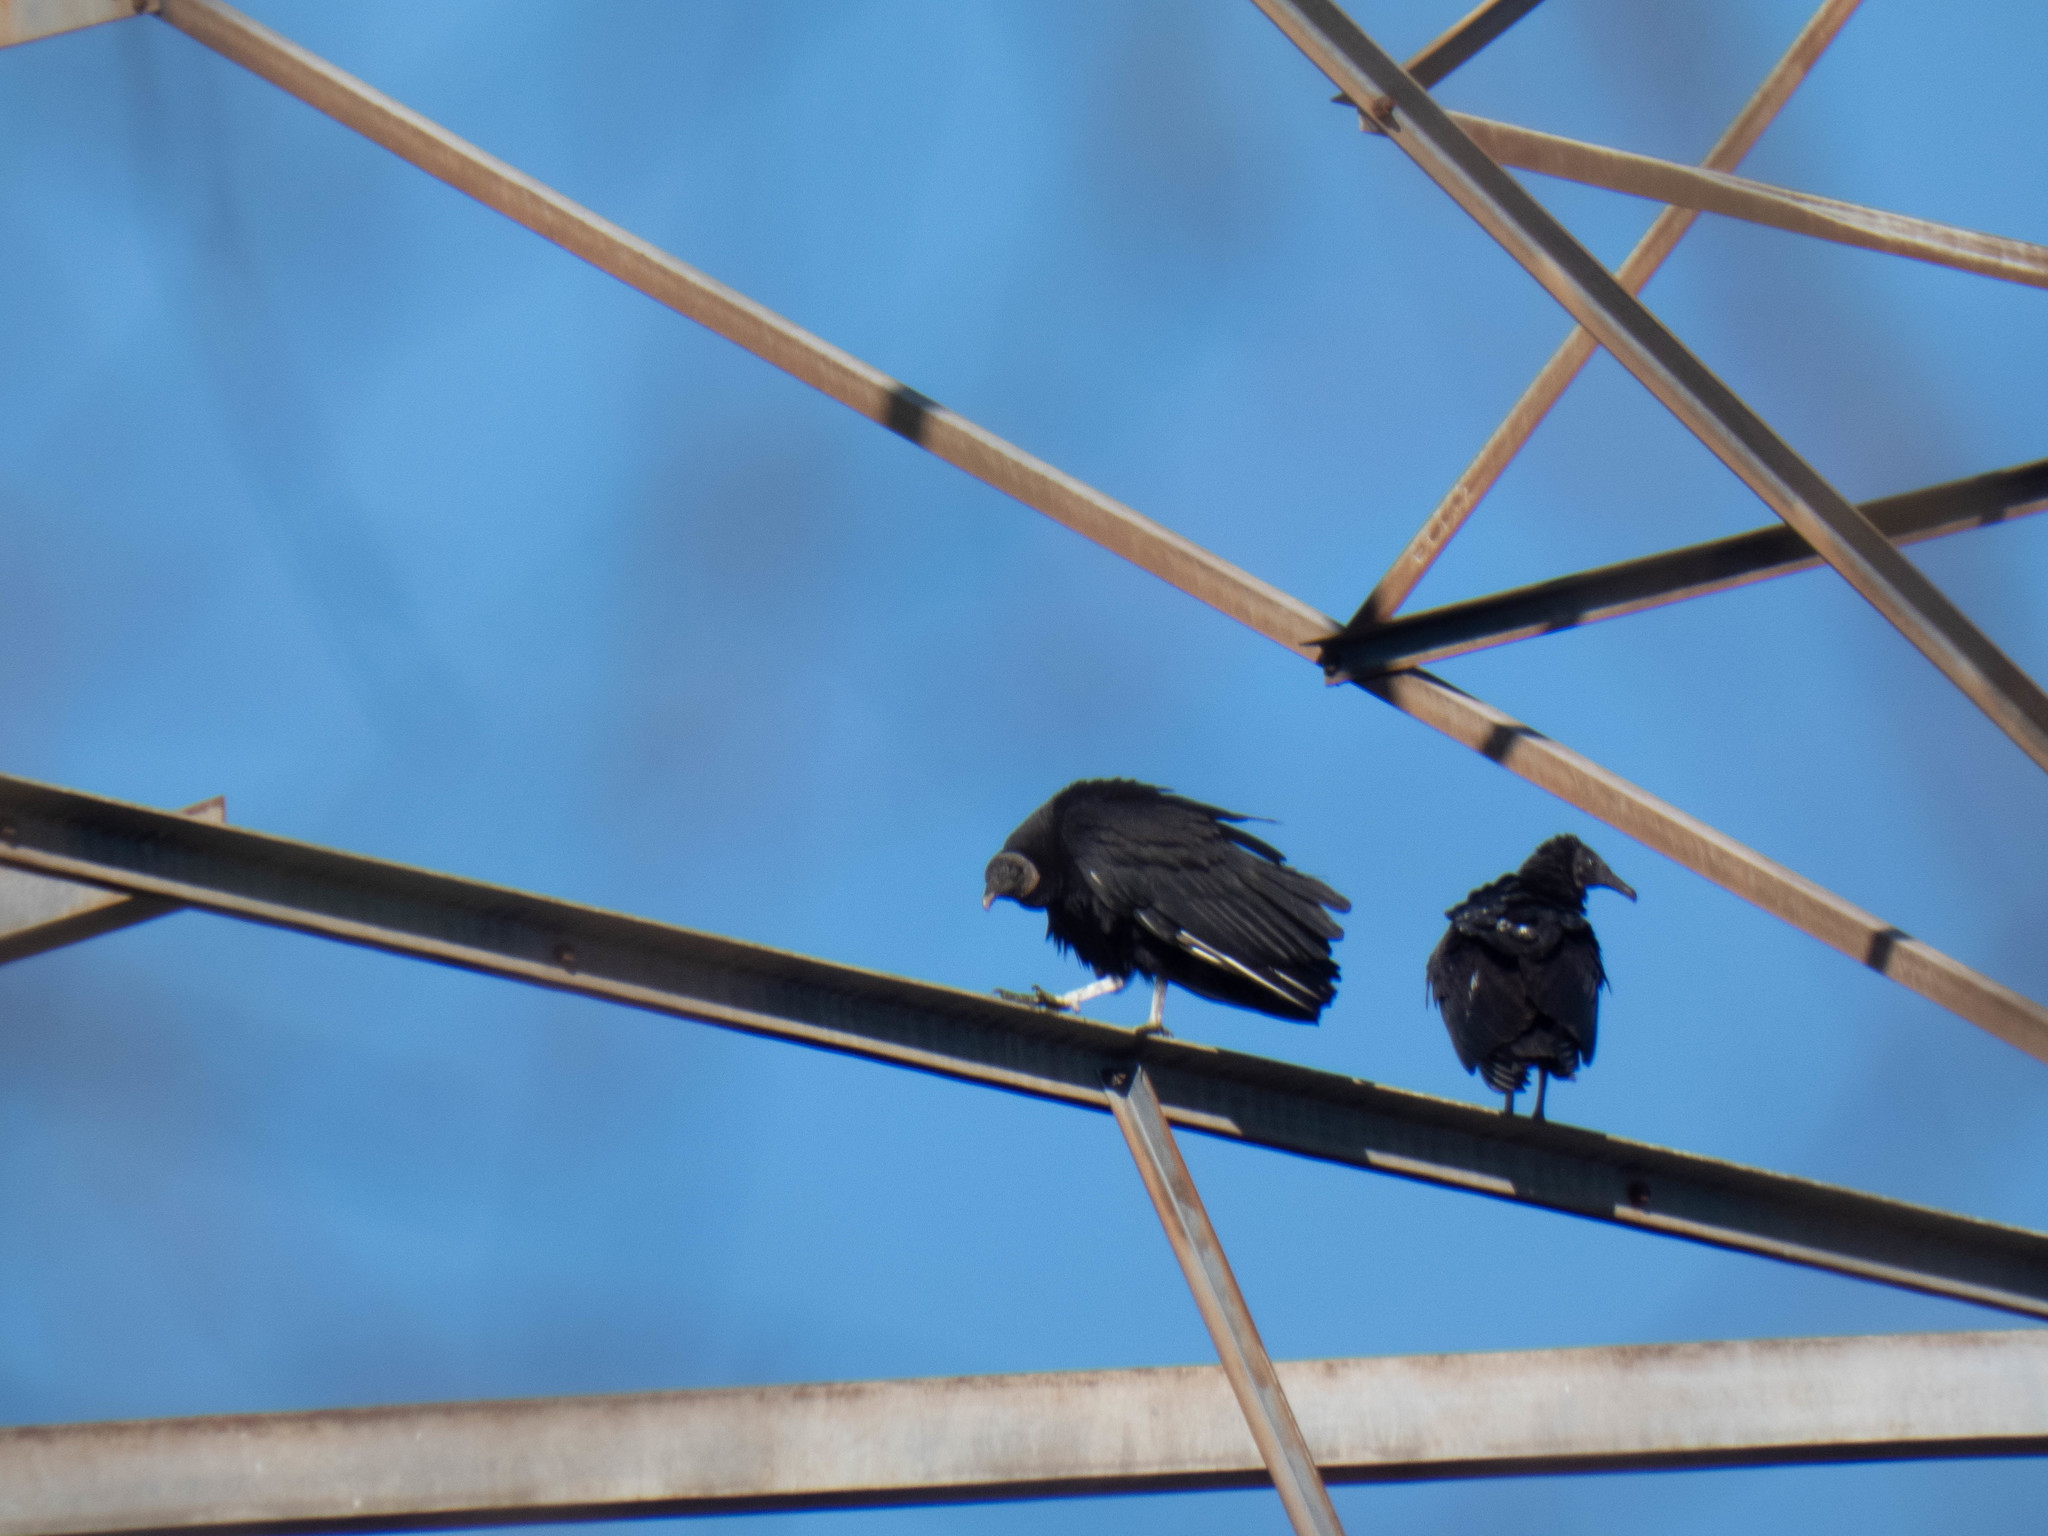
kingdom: Animalia
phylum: Chordata
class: Aves
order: Accipitriformes
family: Cathartidae
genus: Coragyps
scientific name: Coragyps atratus
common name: Black vulture
